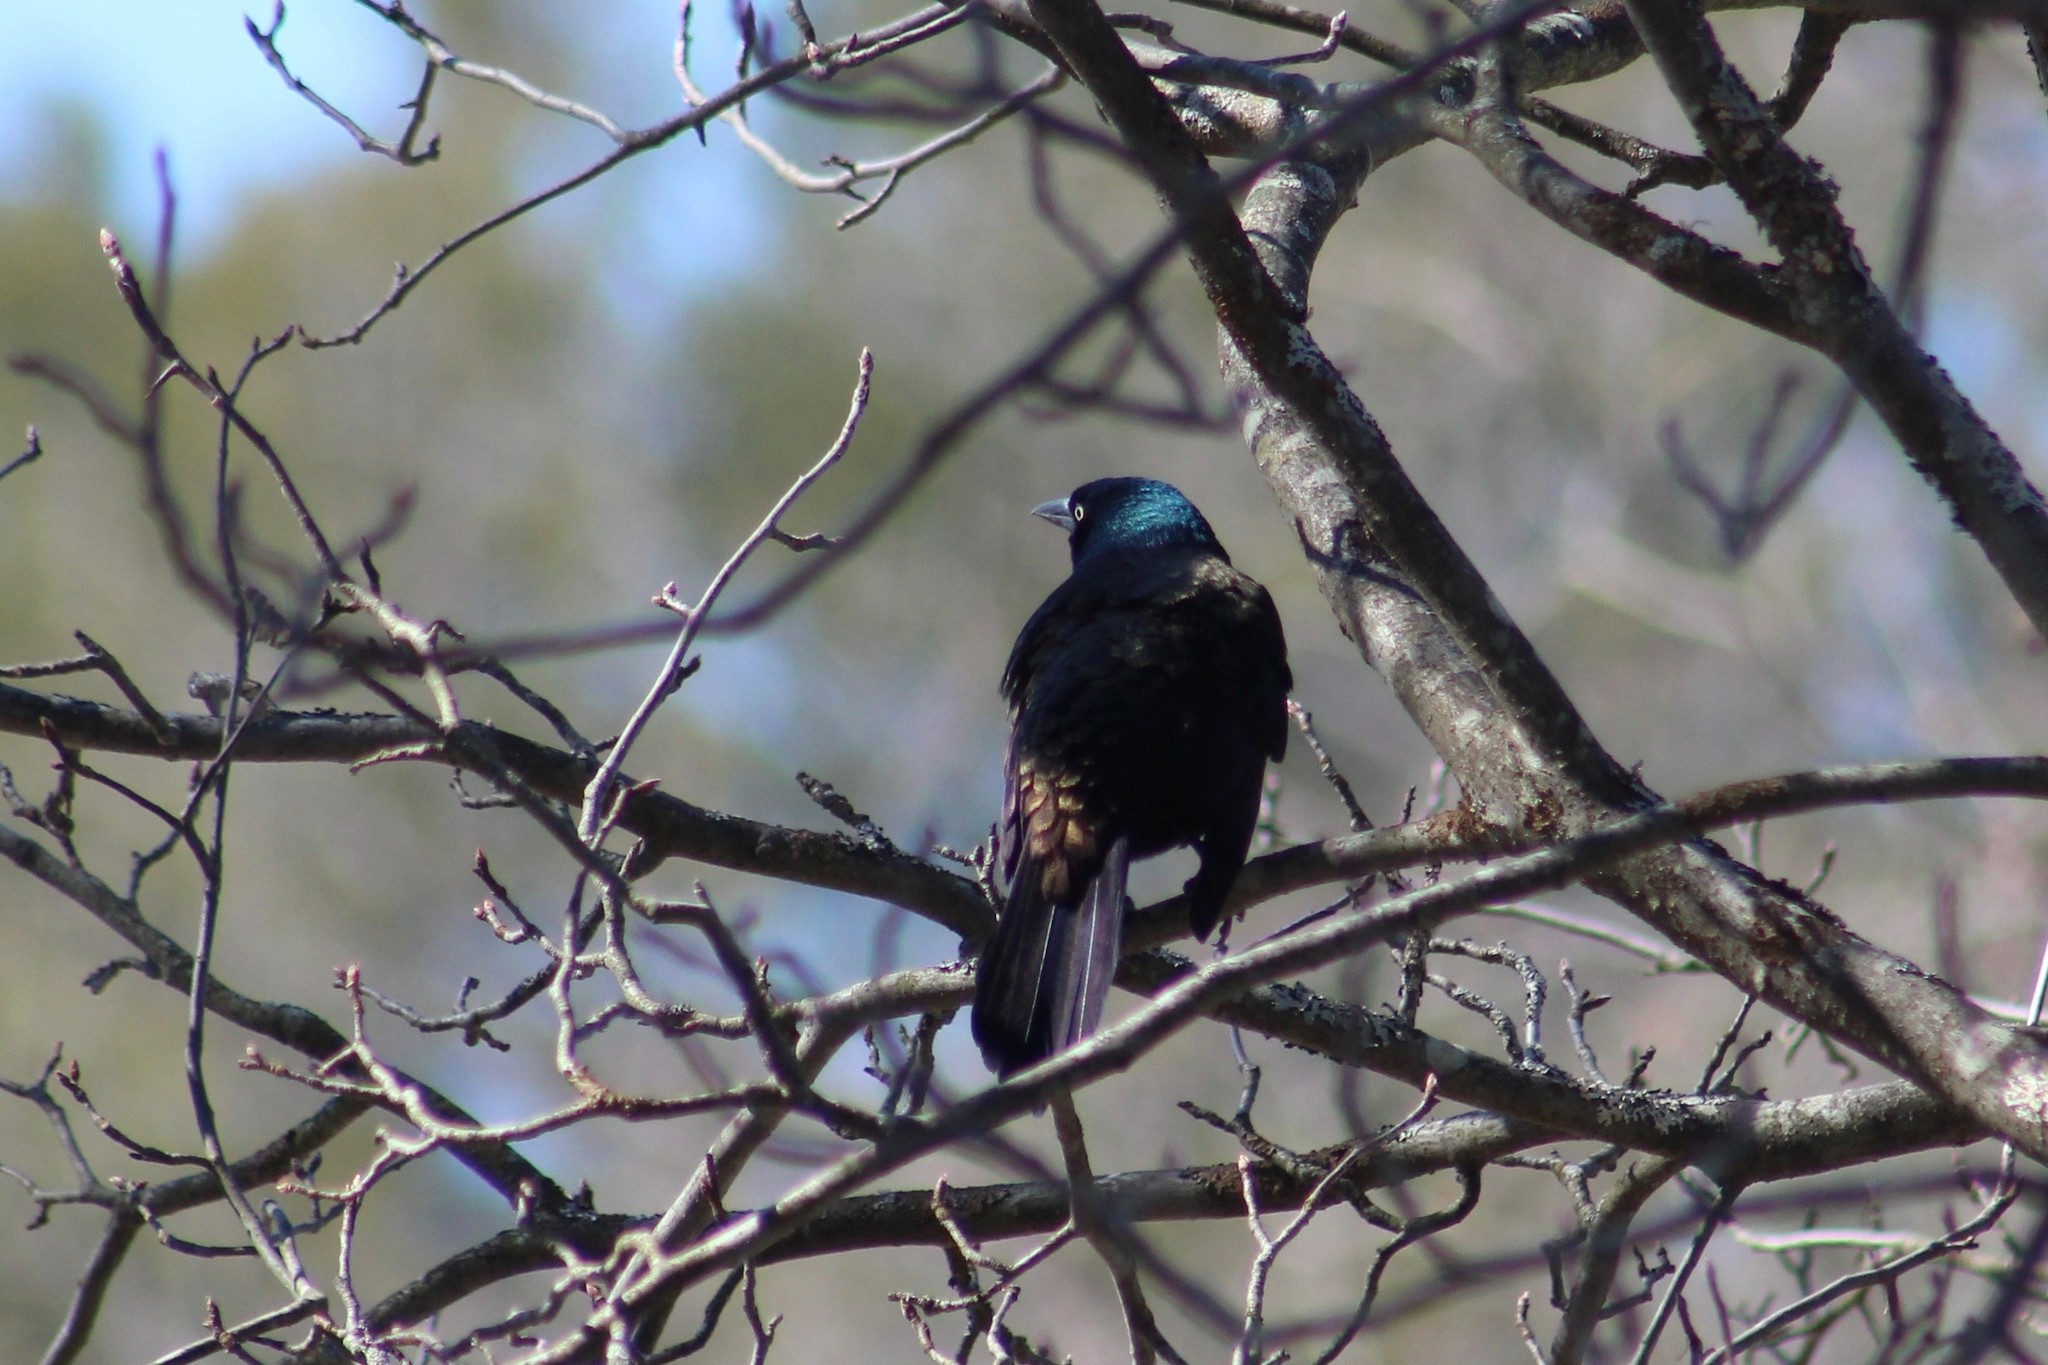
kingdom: Animalia
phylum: Chordata
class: Aves
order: Passeriformes
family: Icteridae
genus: Quiscalus
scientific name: Quiscalus quiscula
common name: Common grackle
